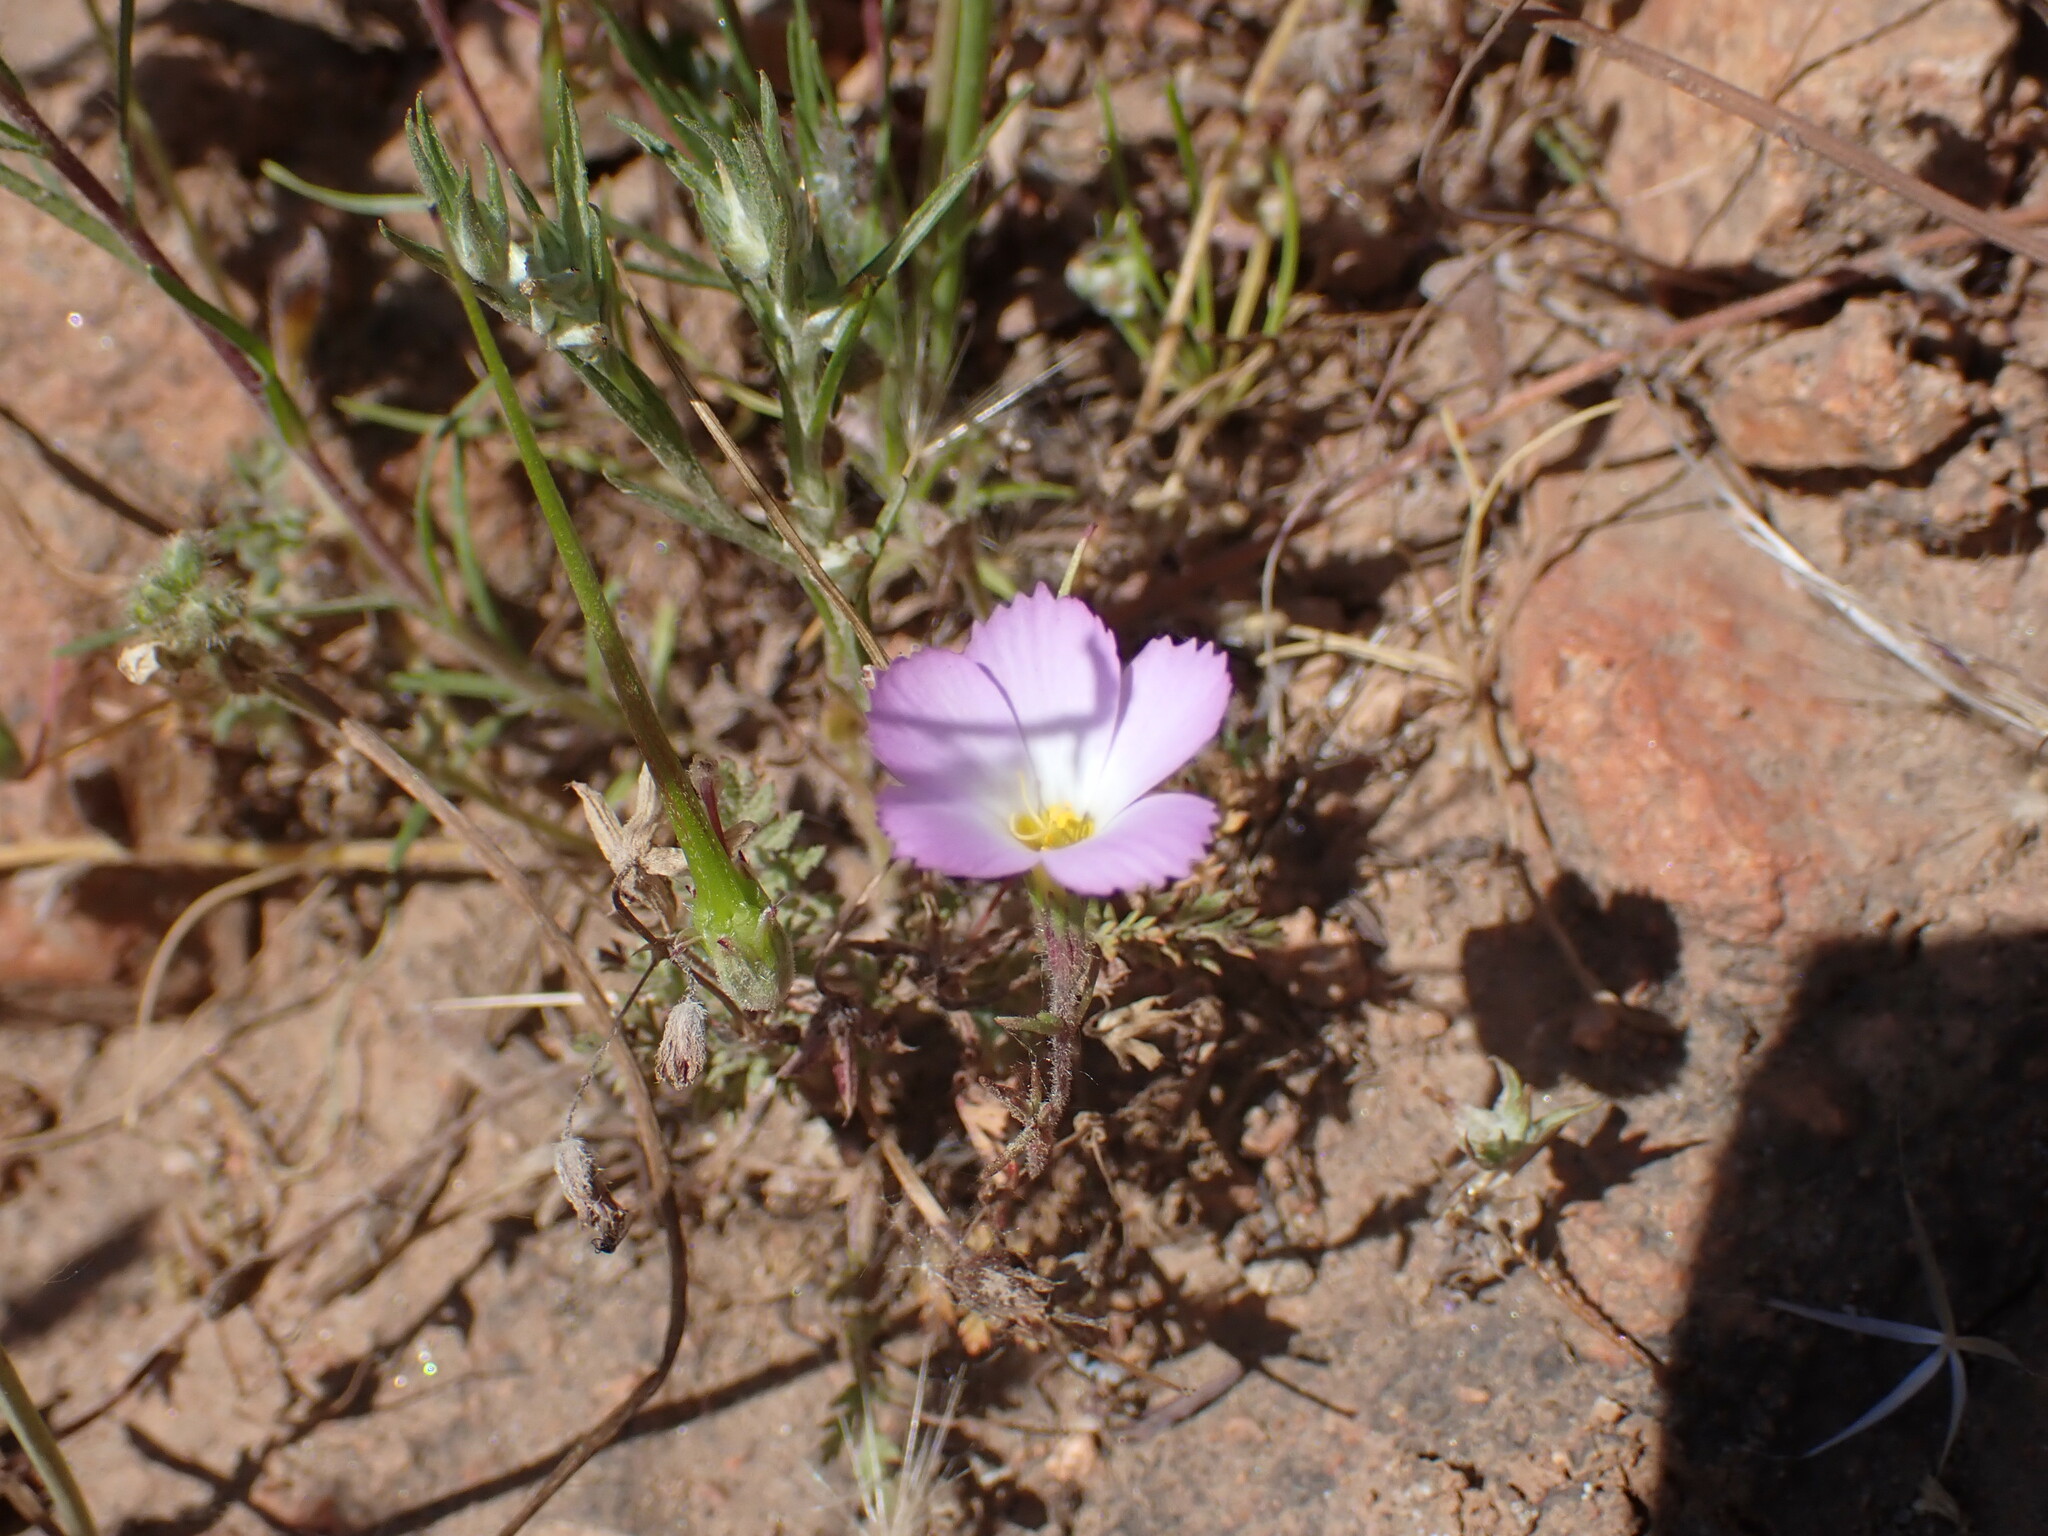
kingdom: Plantae
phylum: Tracheophyta
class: Magnoliopsida
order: Ericales
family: Polemoniaceae
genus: Linanthus
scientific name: Linanthus dianthiflorus
